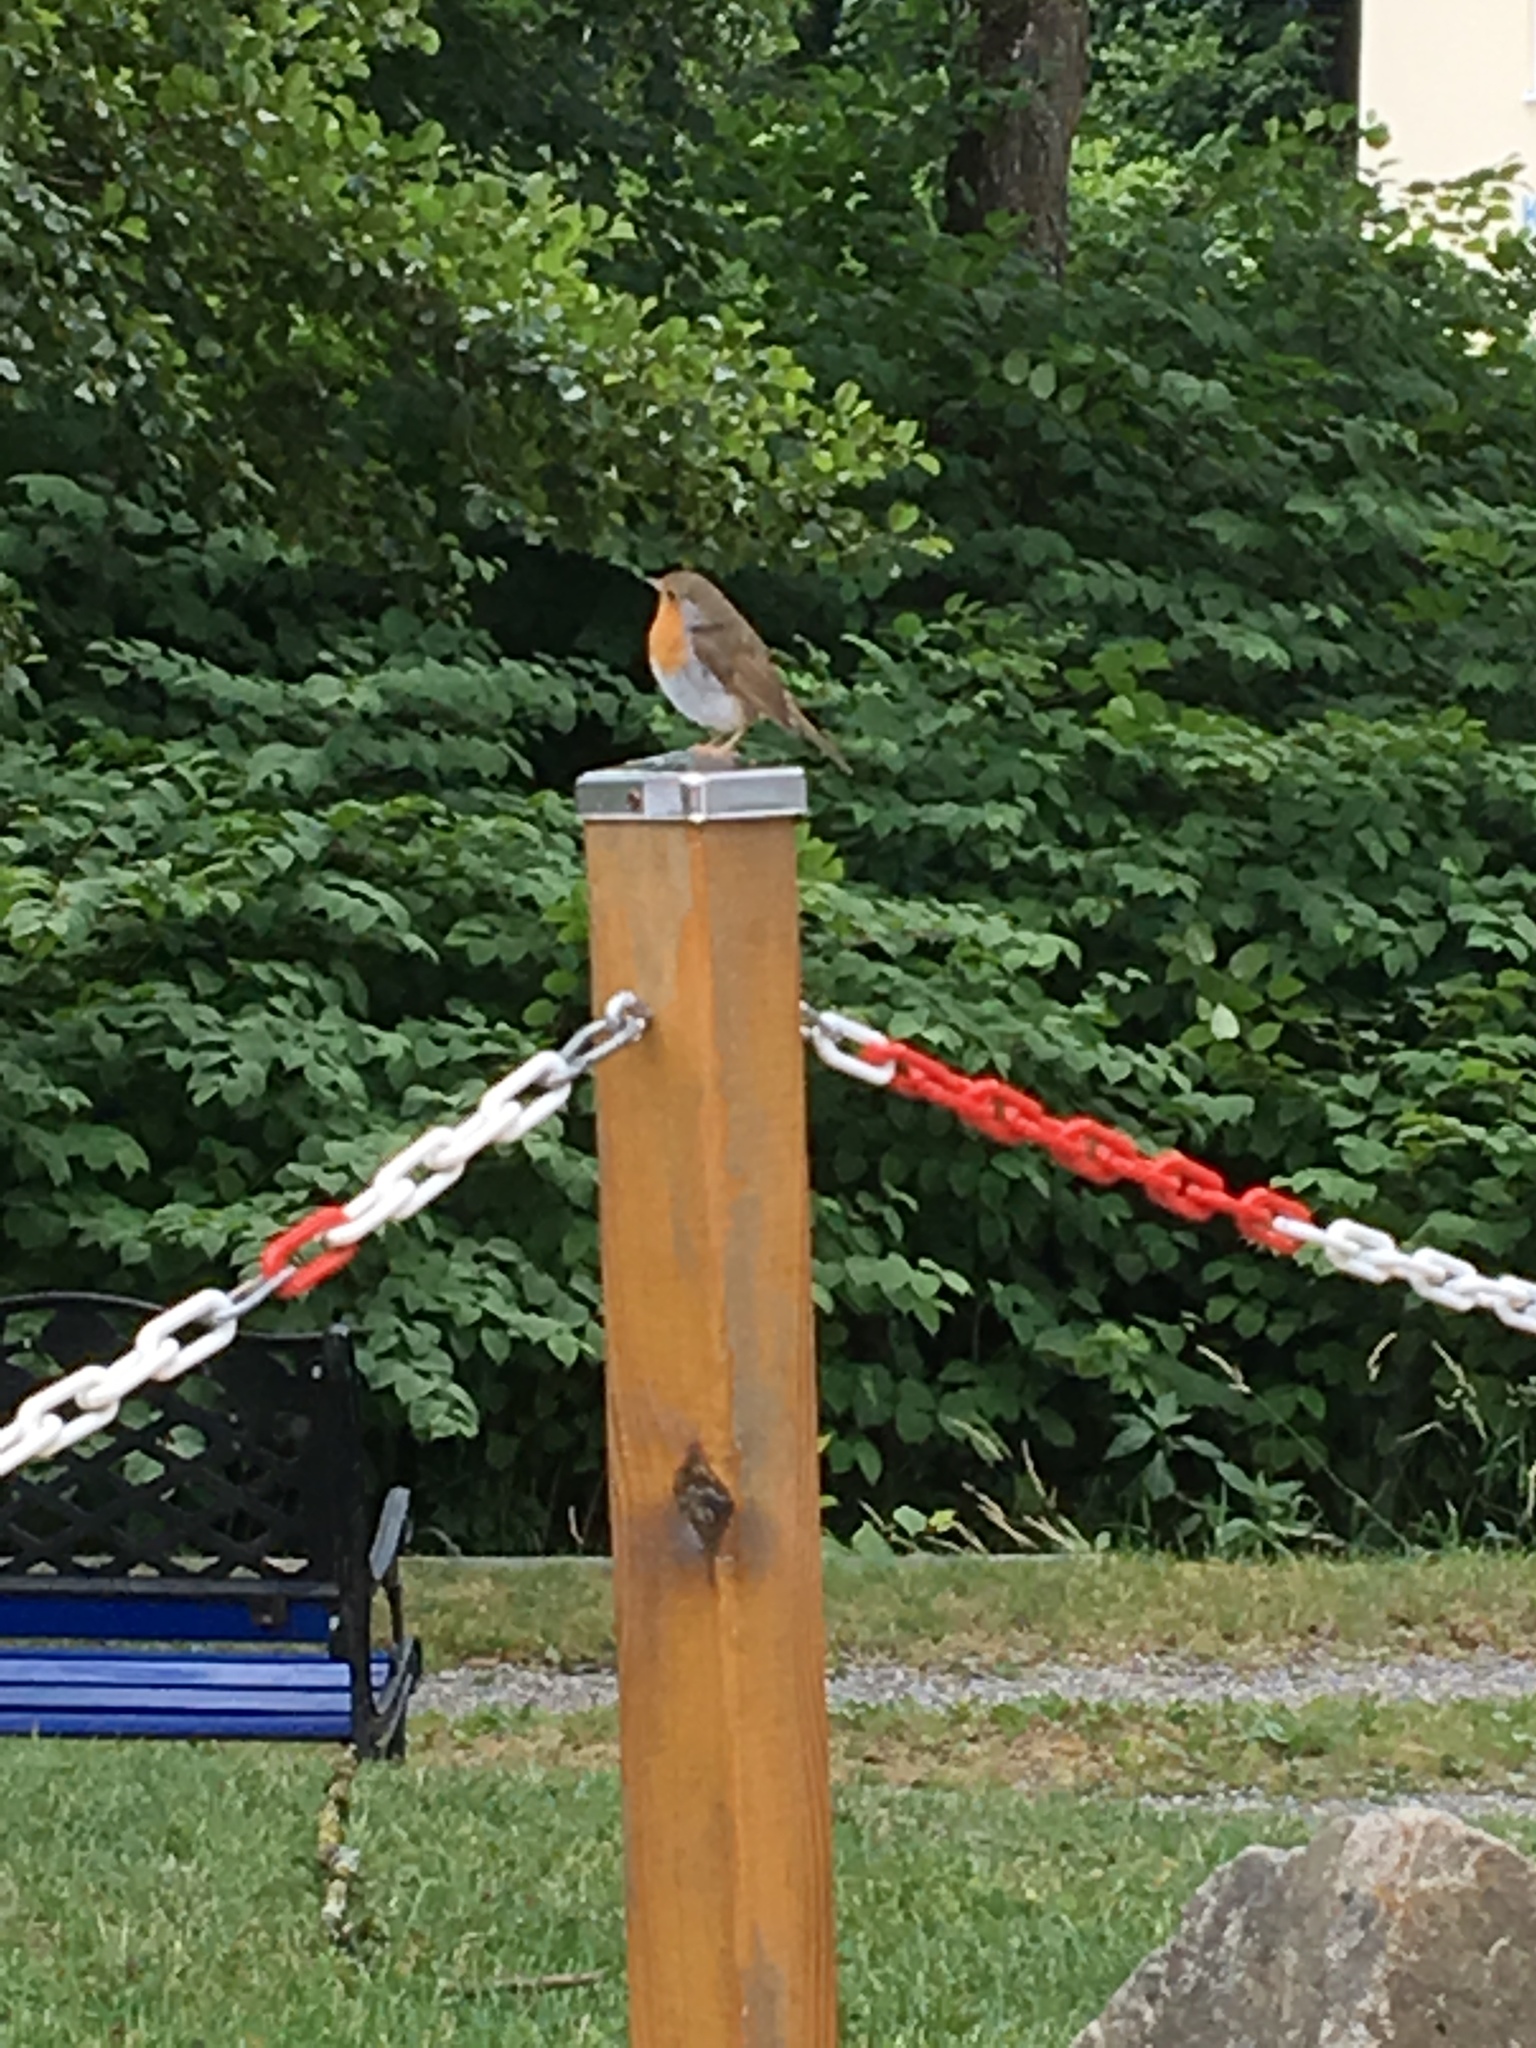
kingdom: Animalia
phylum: Chordata
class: Aves
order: Passeriformes
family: Muscicapidae
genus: Erithacus
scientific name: Erithacus rubecula
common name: European robin
